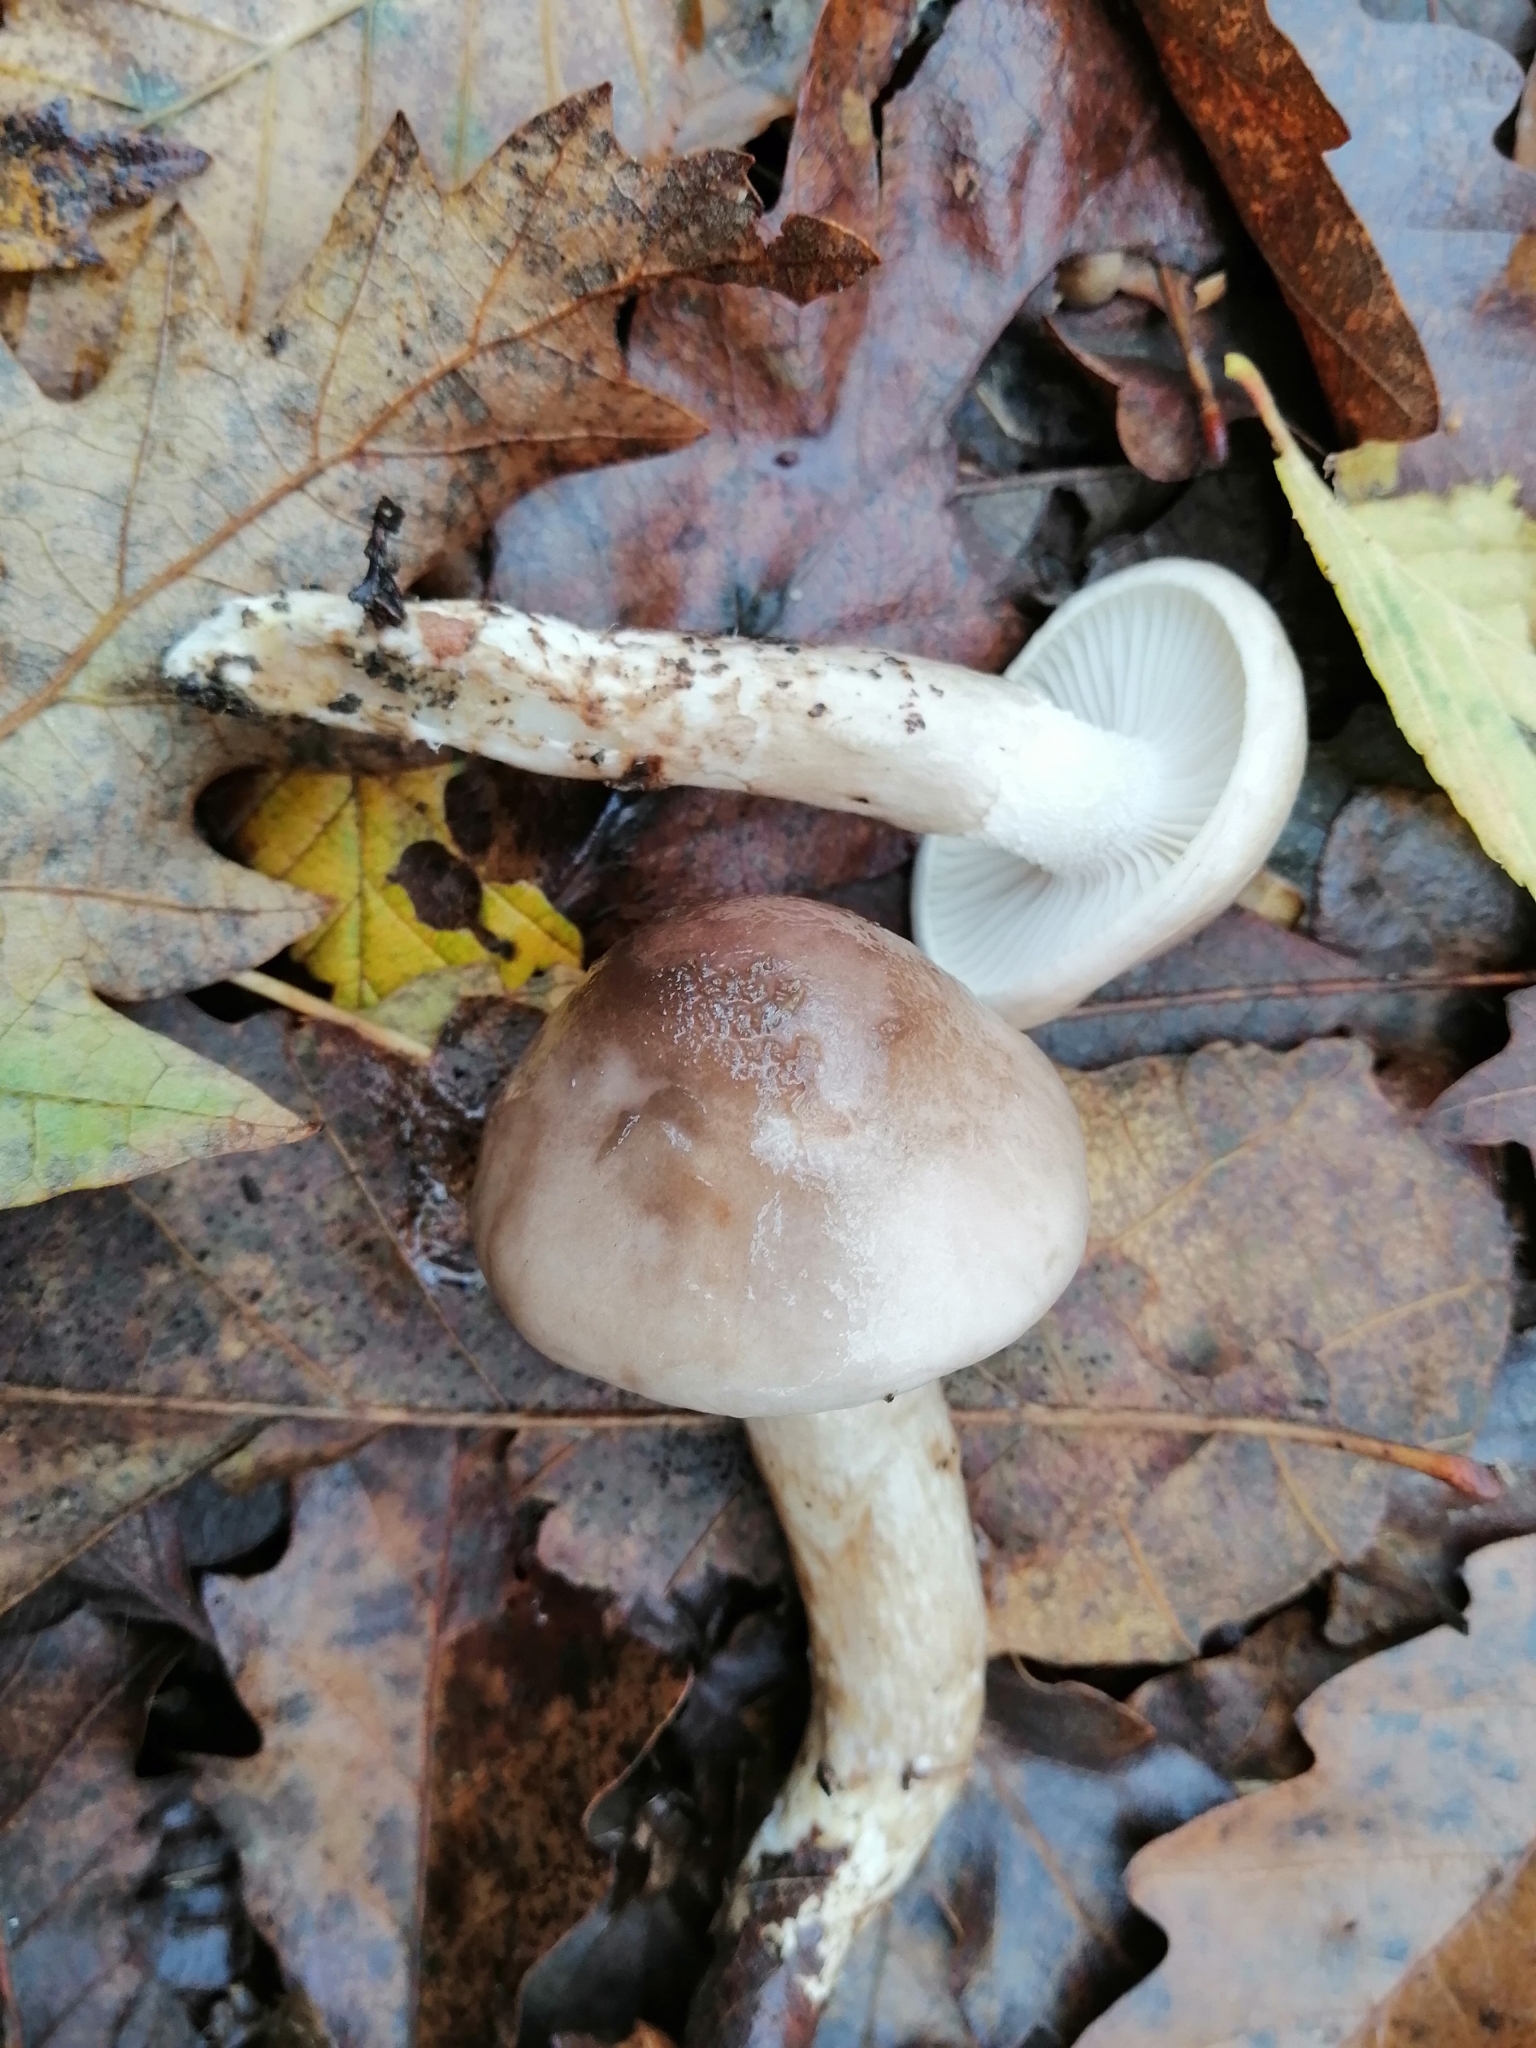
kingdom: Fungi
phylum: Basidiomycota
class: Agaricomycetes
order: Agaricales
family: Hygrophoraceae
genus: Hygrophorus
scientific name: Hygrophorus glutinifer
